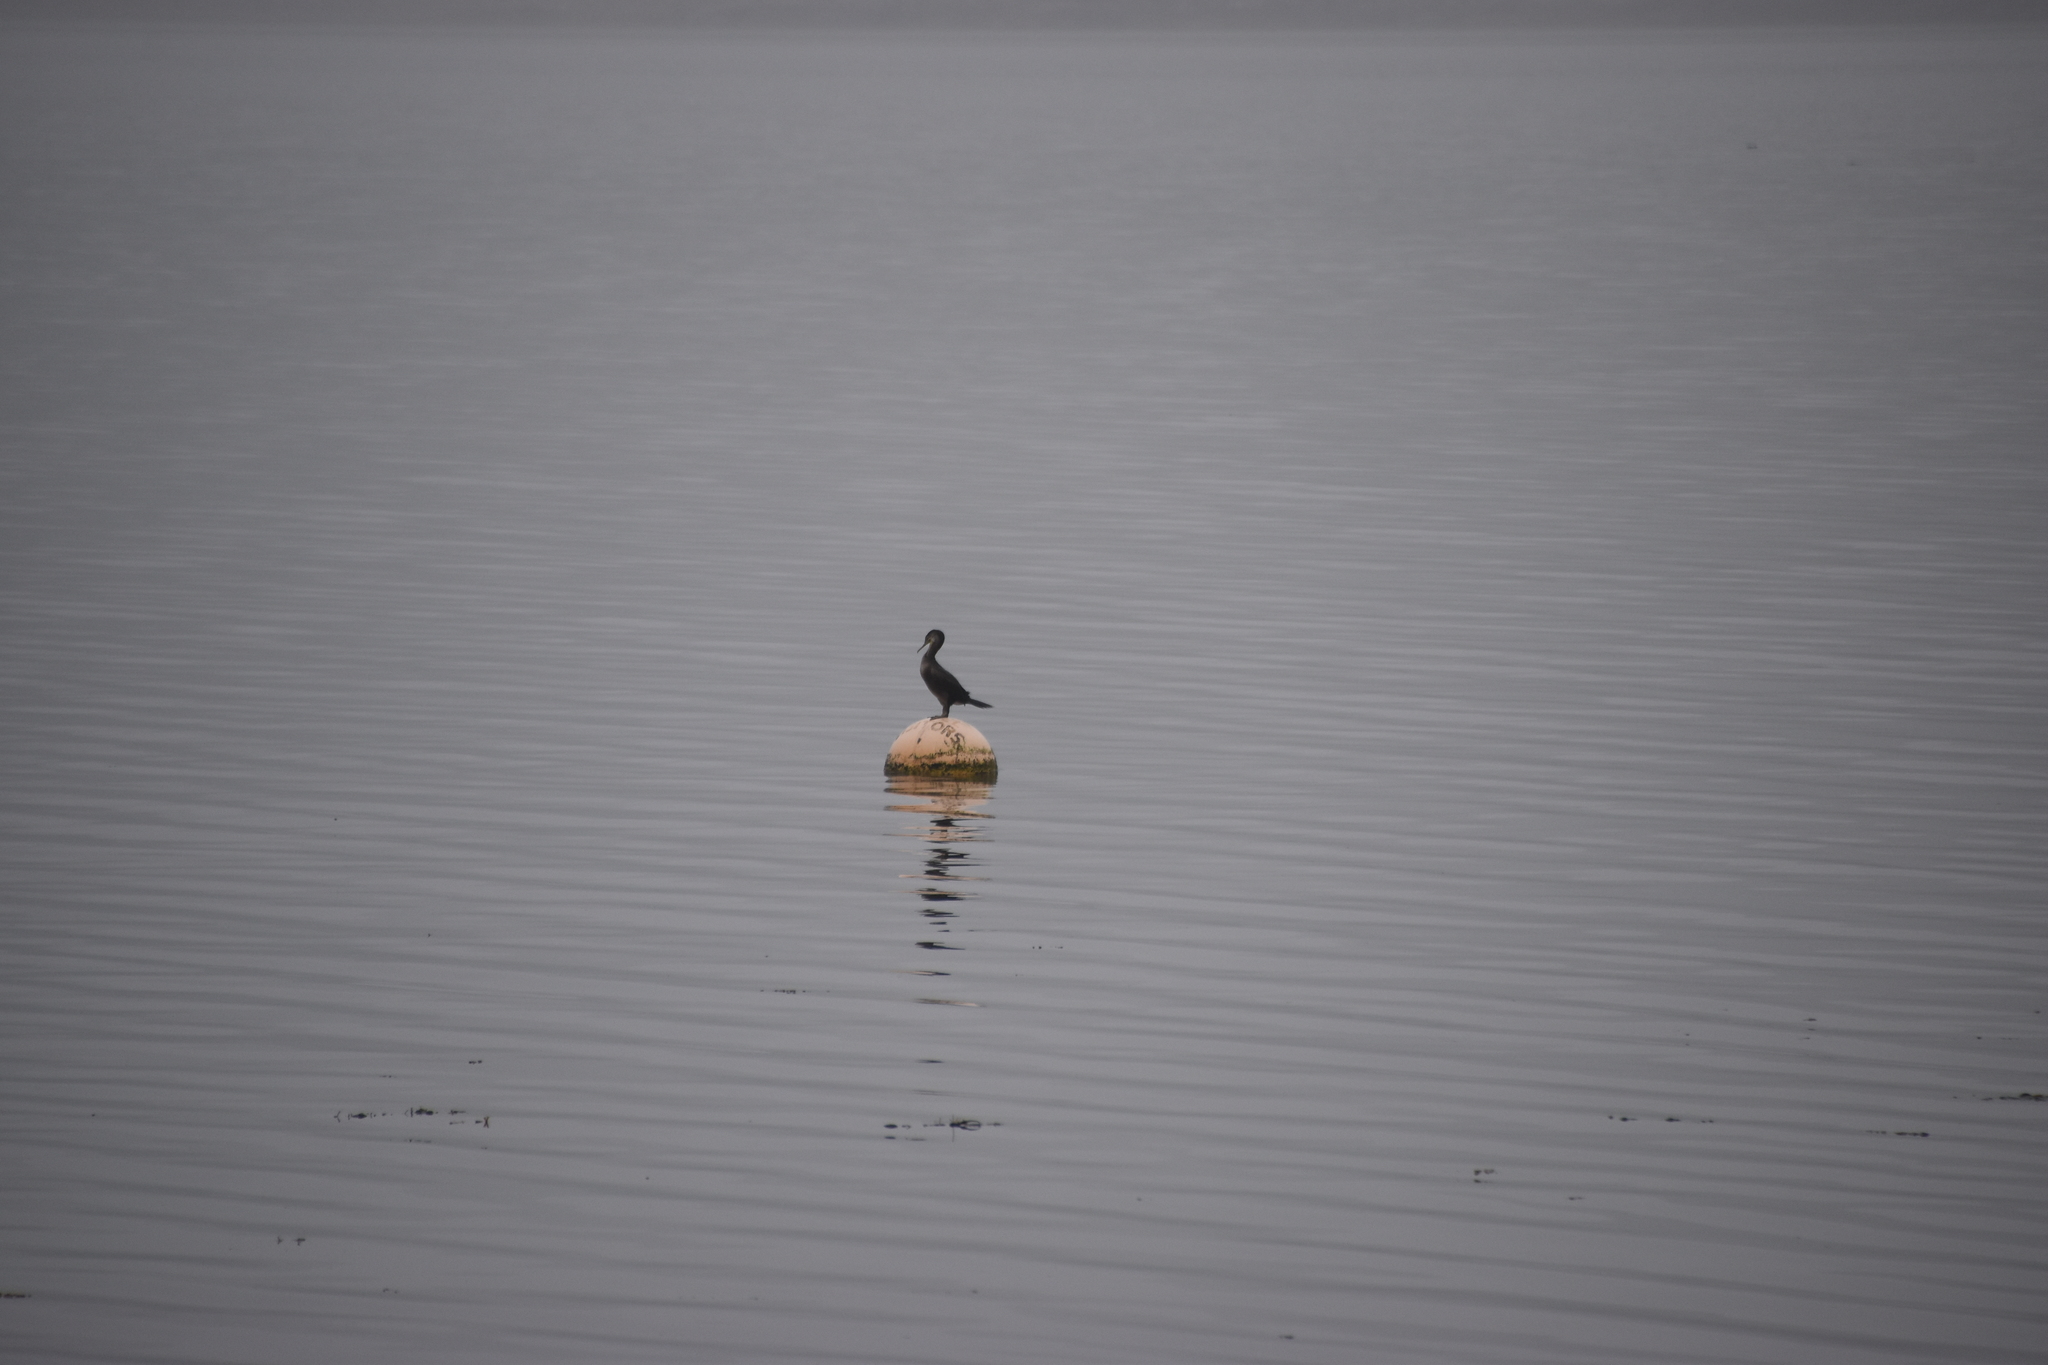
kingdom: Animalia
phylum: Chordata
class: Aves
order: Suliformes
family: Phalacrocoracidae
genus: Phalacrocorax
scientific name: Phalacrocorax aristotelis
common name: European shag
